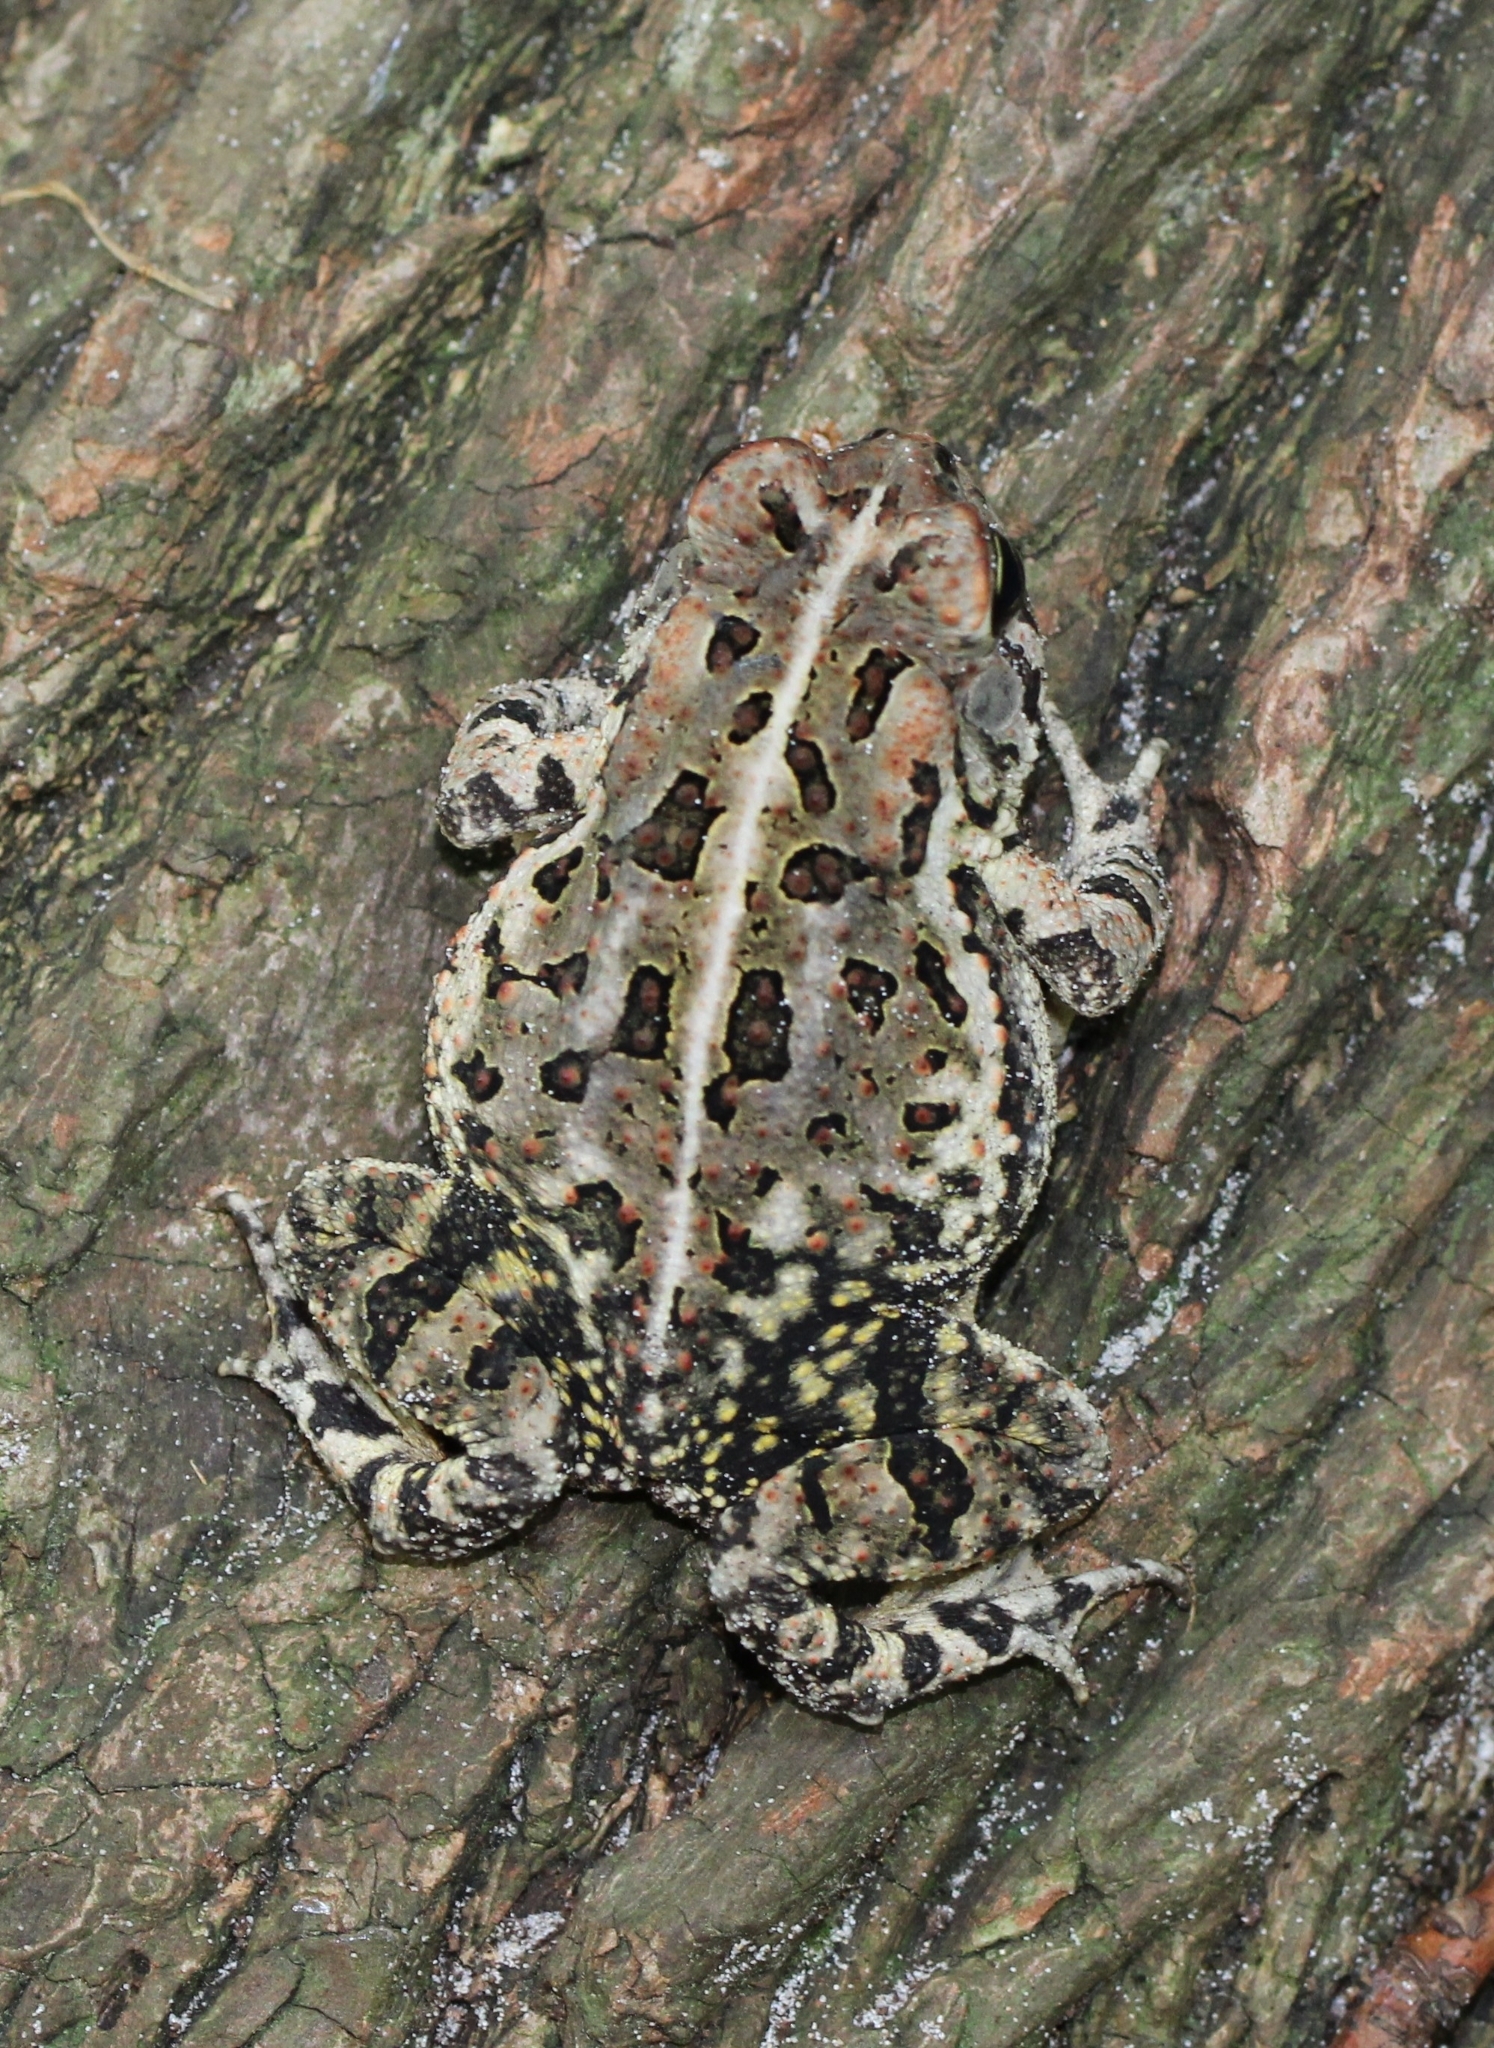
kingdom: Animalia
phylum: Chordata
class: Amphibia
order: Anura
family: Bufonidae
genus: Anaxyrus
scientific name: Anaxyrus fowleri
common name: Fowler's toad
